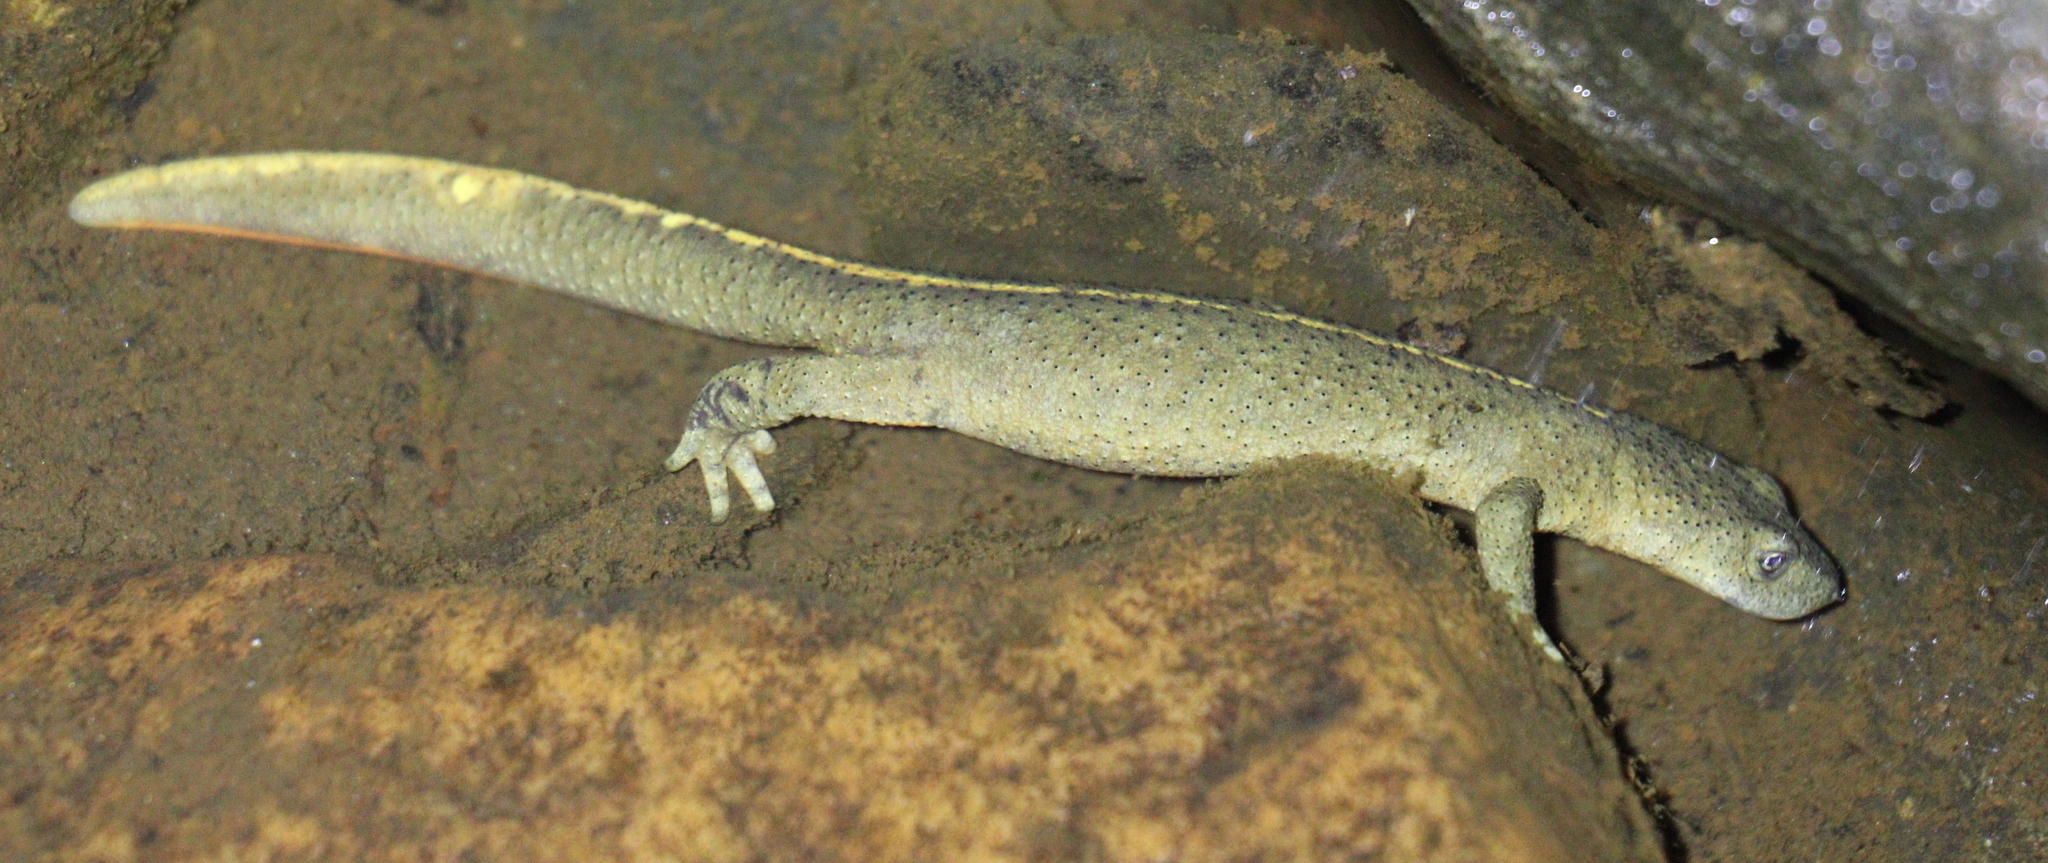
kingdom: Animalia
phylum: Chordata
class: Amphibia
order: Caudata
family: Salamandridae
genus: Calotriton
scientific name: Calotriton asper
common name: Pyrenean brook salamander
